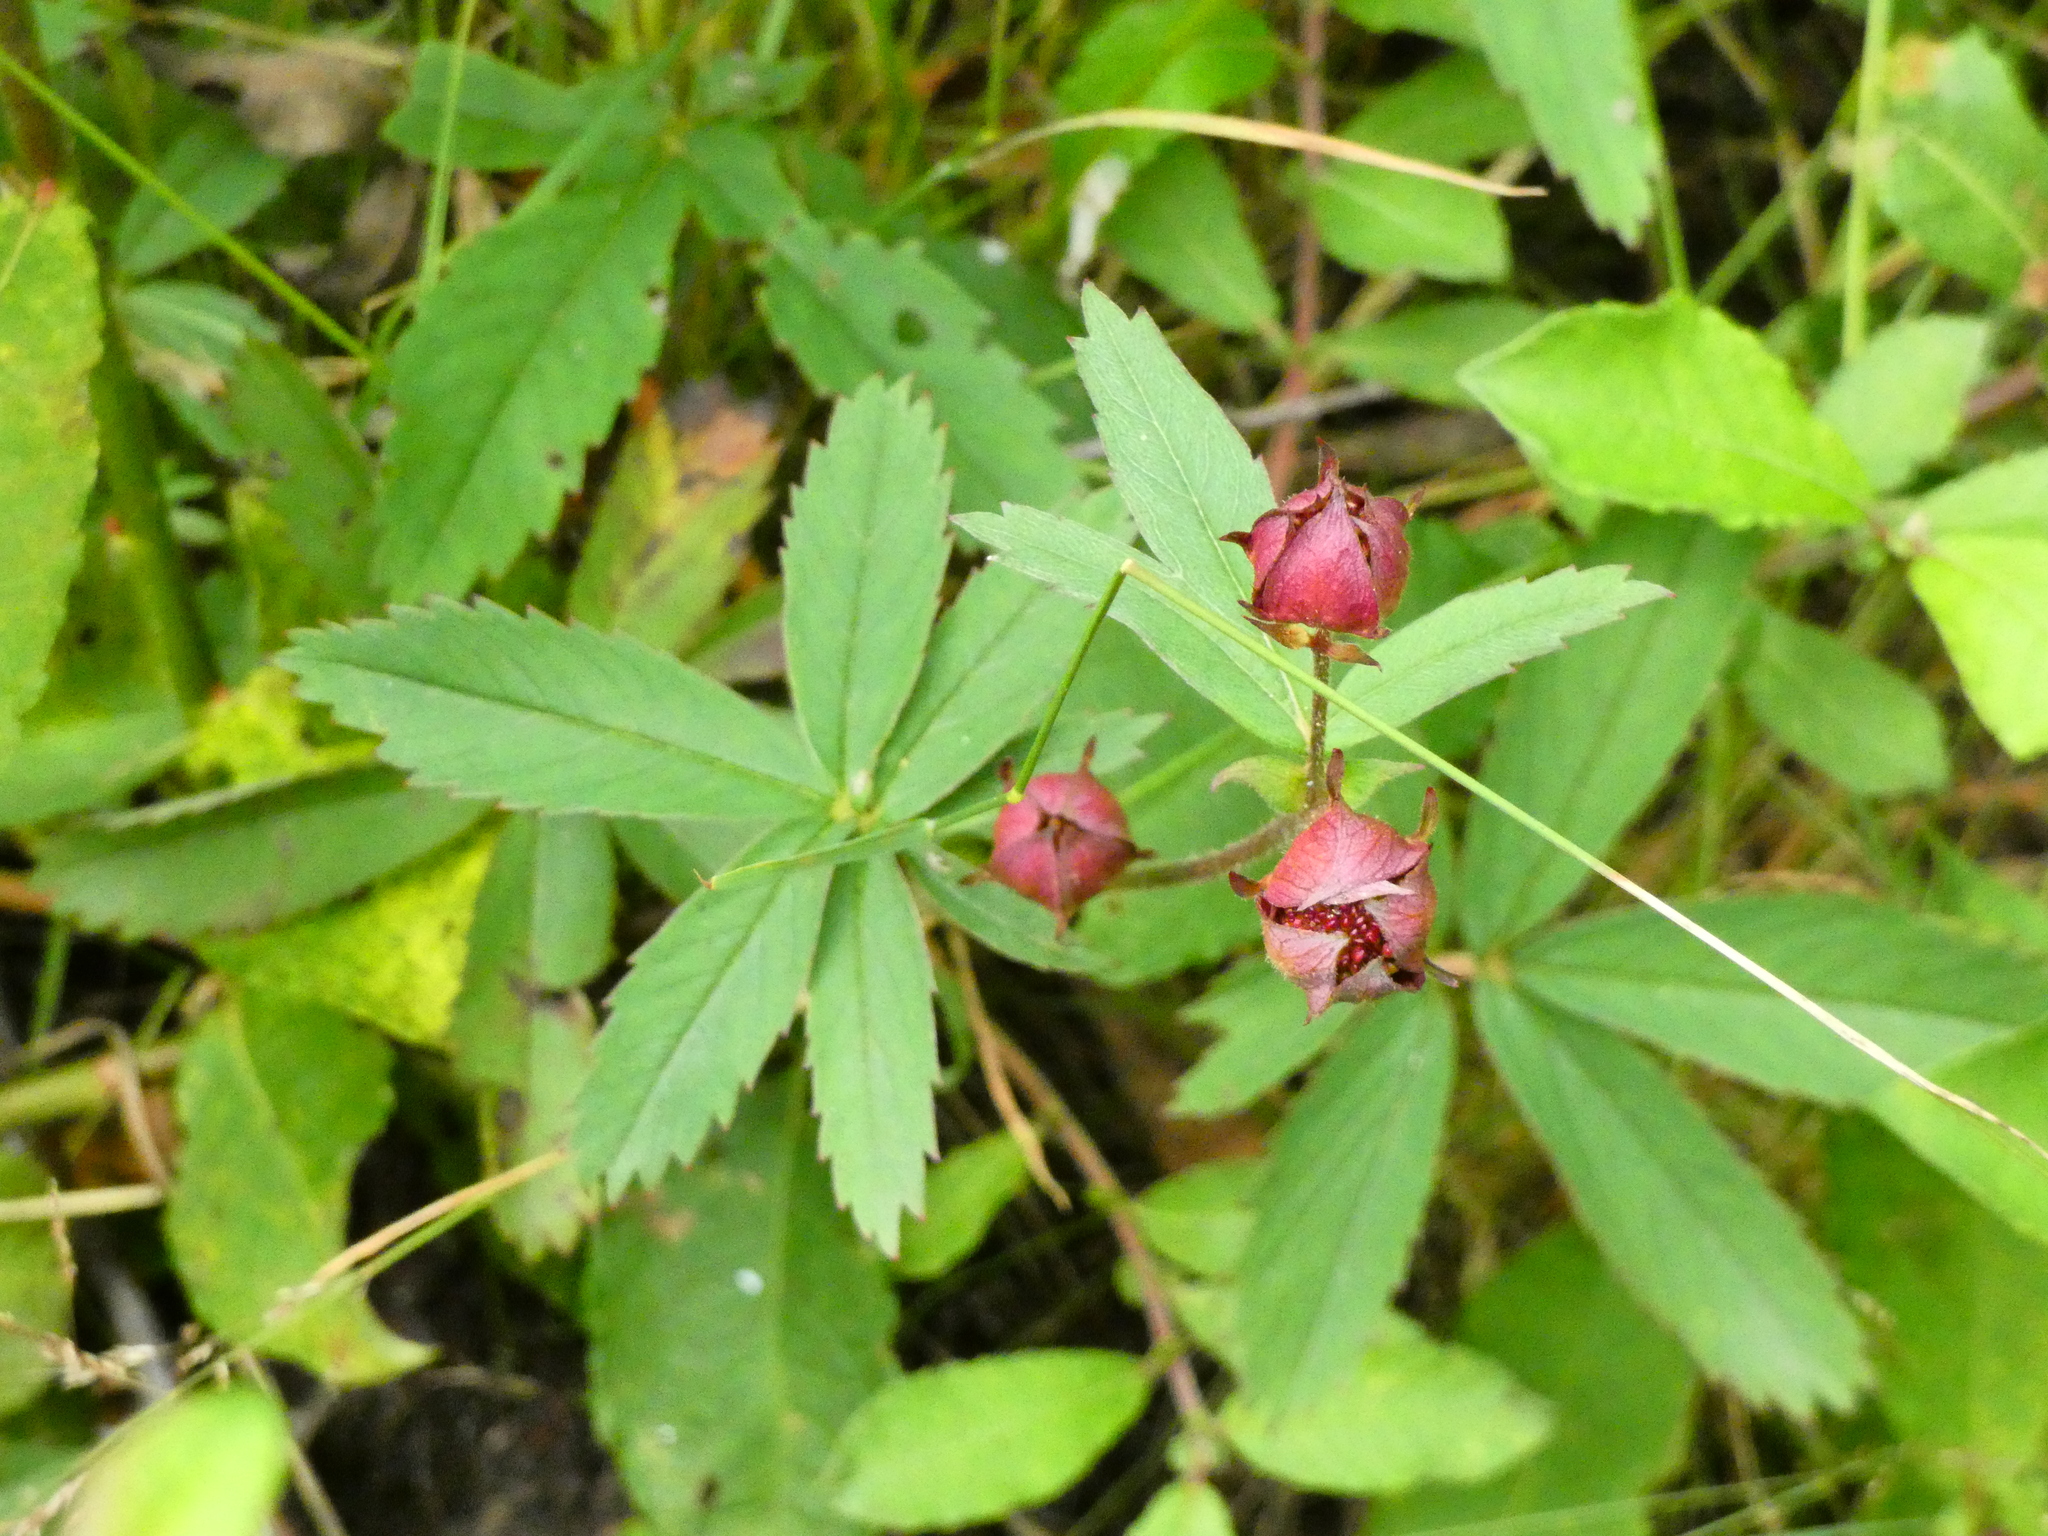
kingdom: Plantae
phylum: Tracheophyta
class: Magnoliopsida
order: Rosales
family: Rosaceae
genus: Comarum
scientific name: Comarum palustre
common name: Marsh cinquefoil
